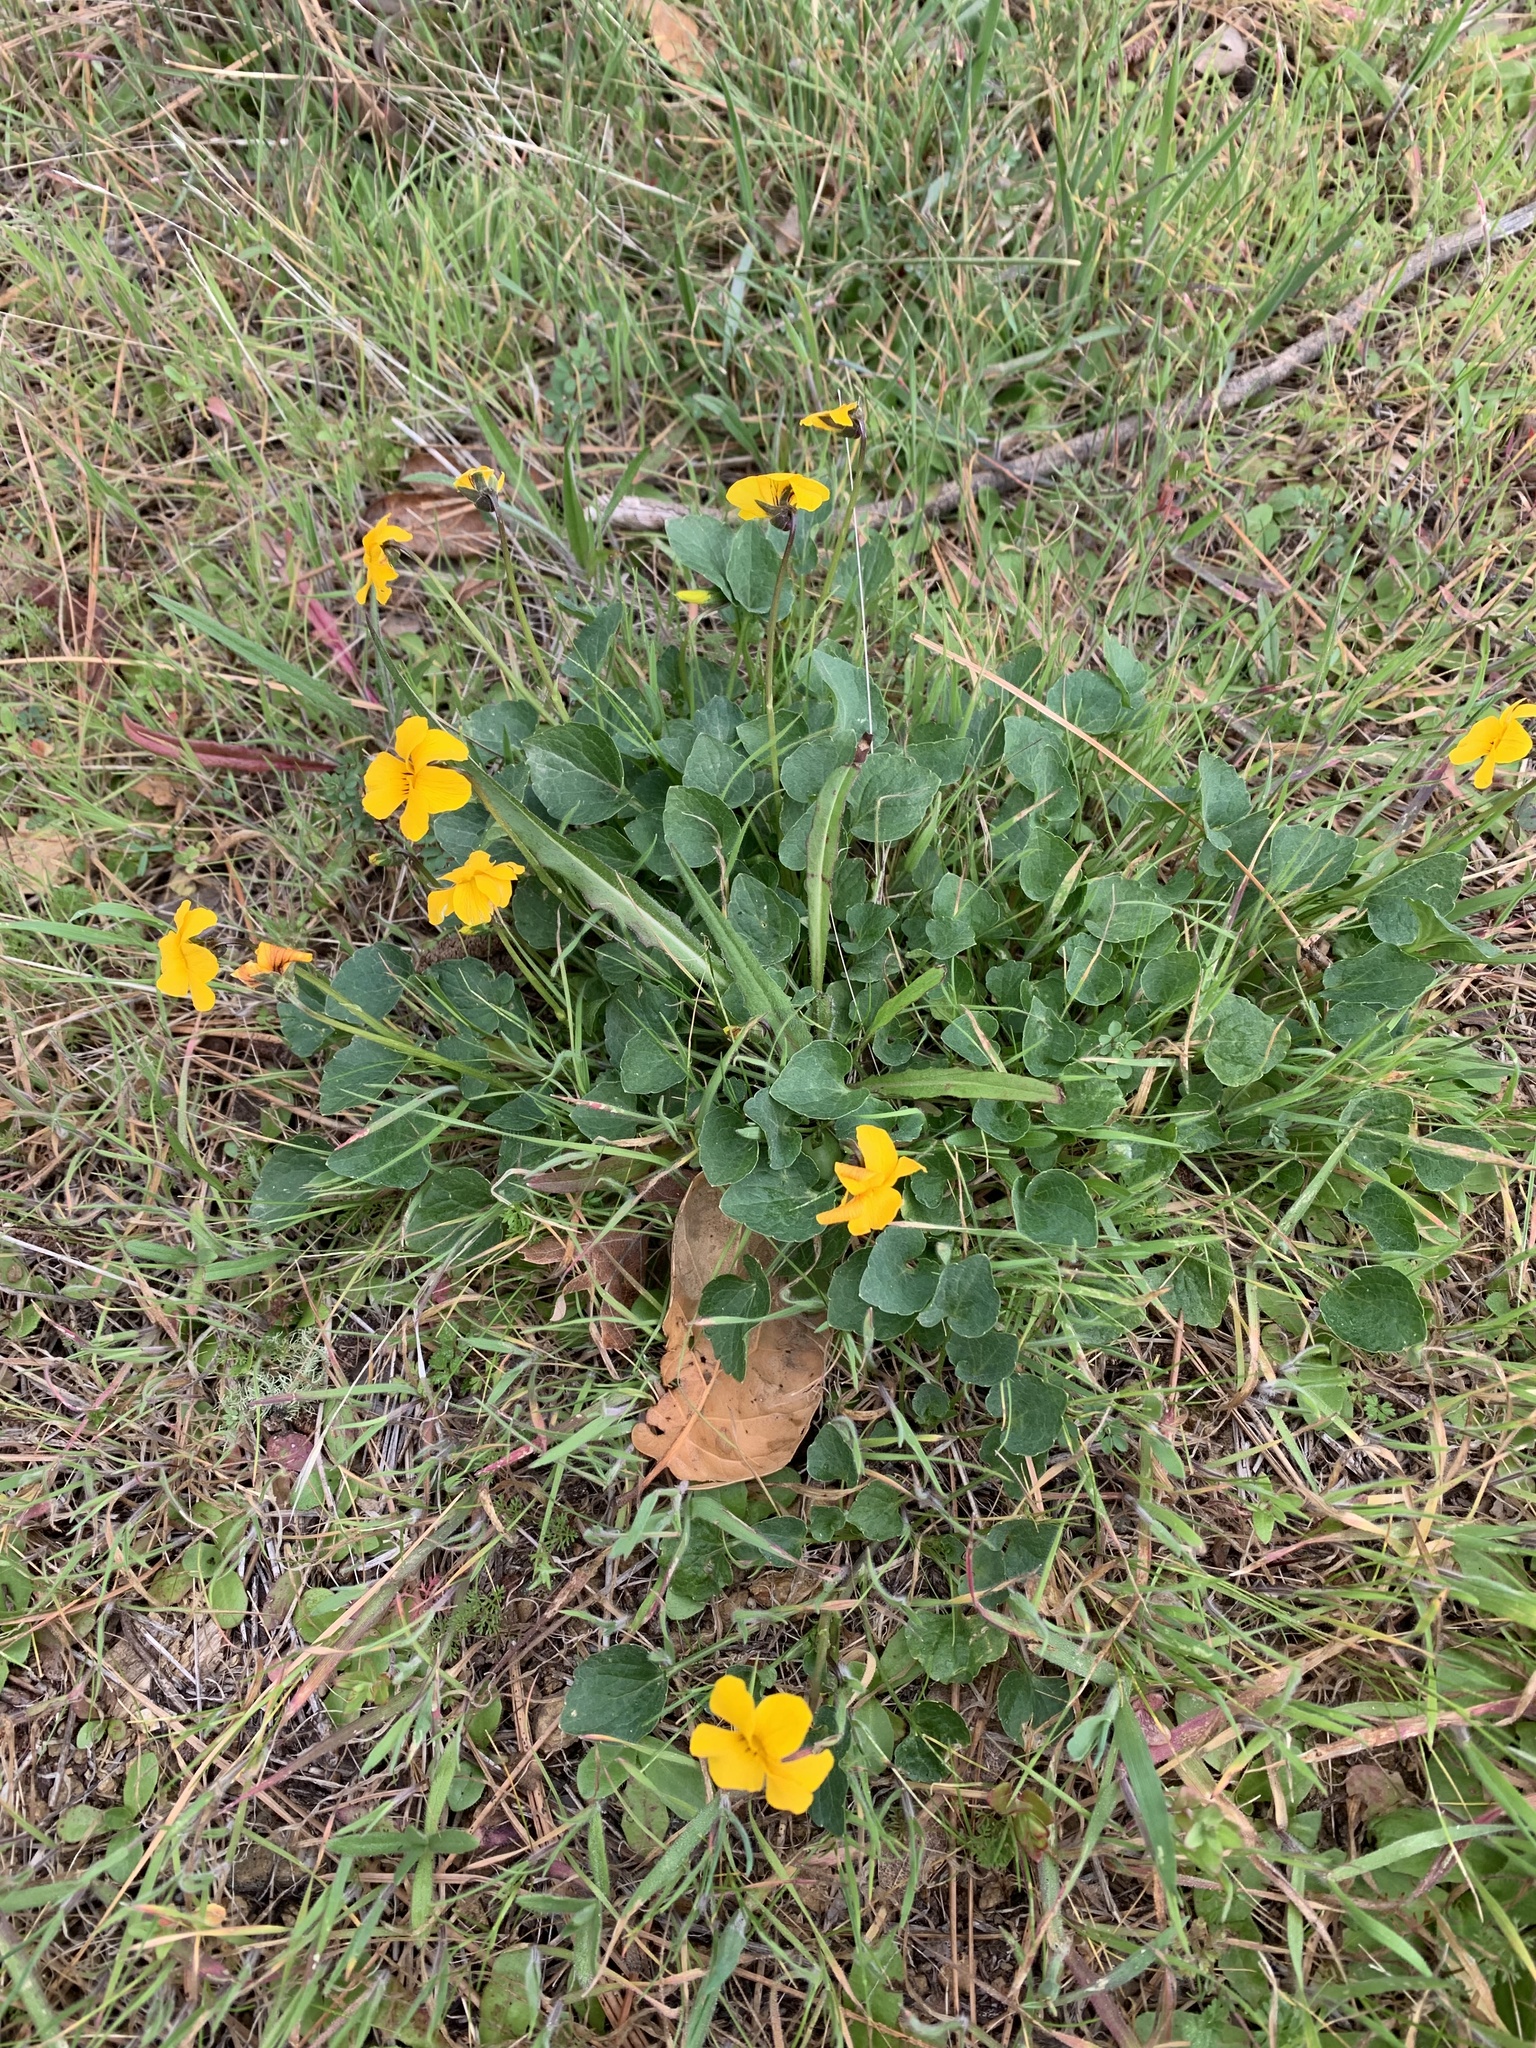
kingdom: Plantae
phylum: Tracheophyta
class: Magnoliopsida
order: Malpighiales
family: Violaceae
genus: Viola
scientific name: Viola pedunculata
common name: California golden violet
